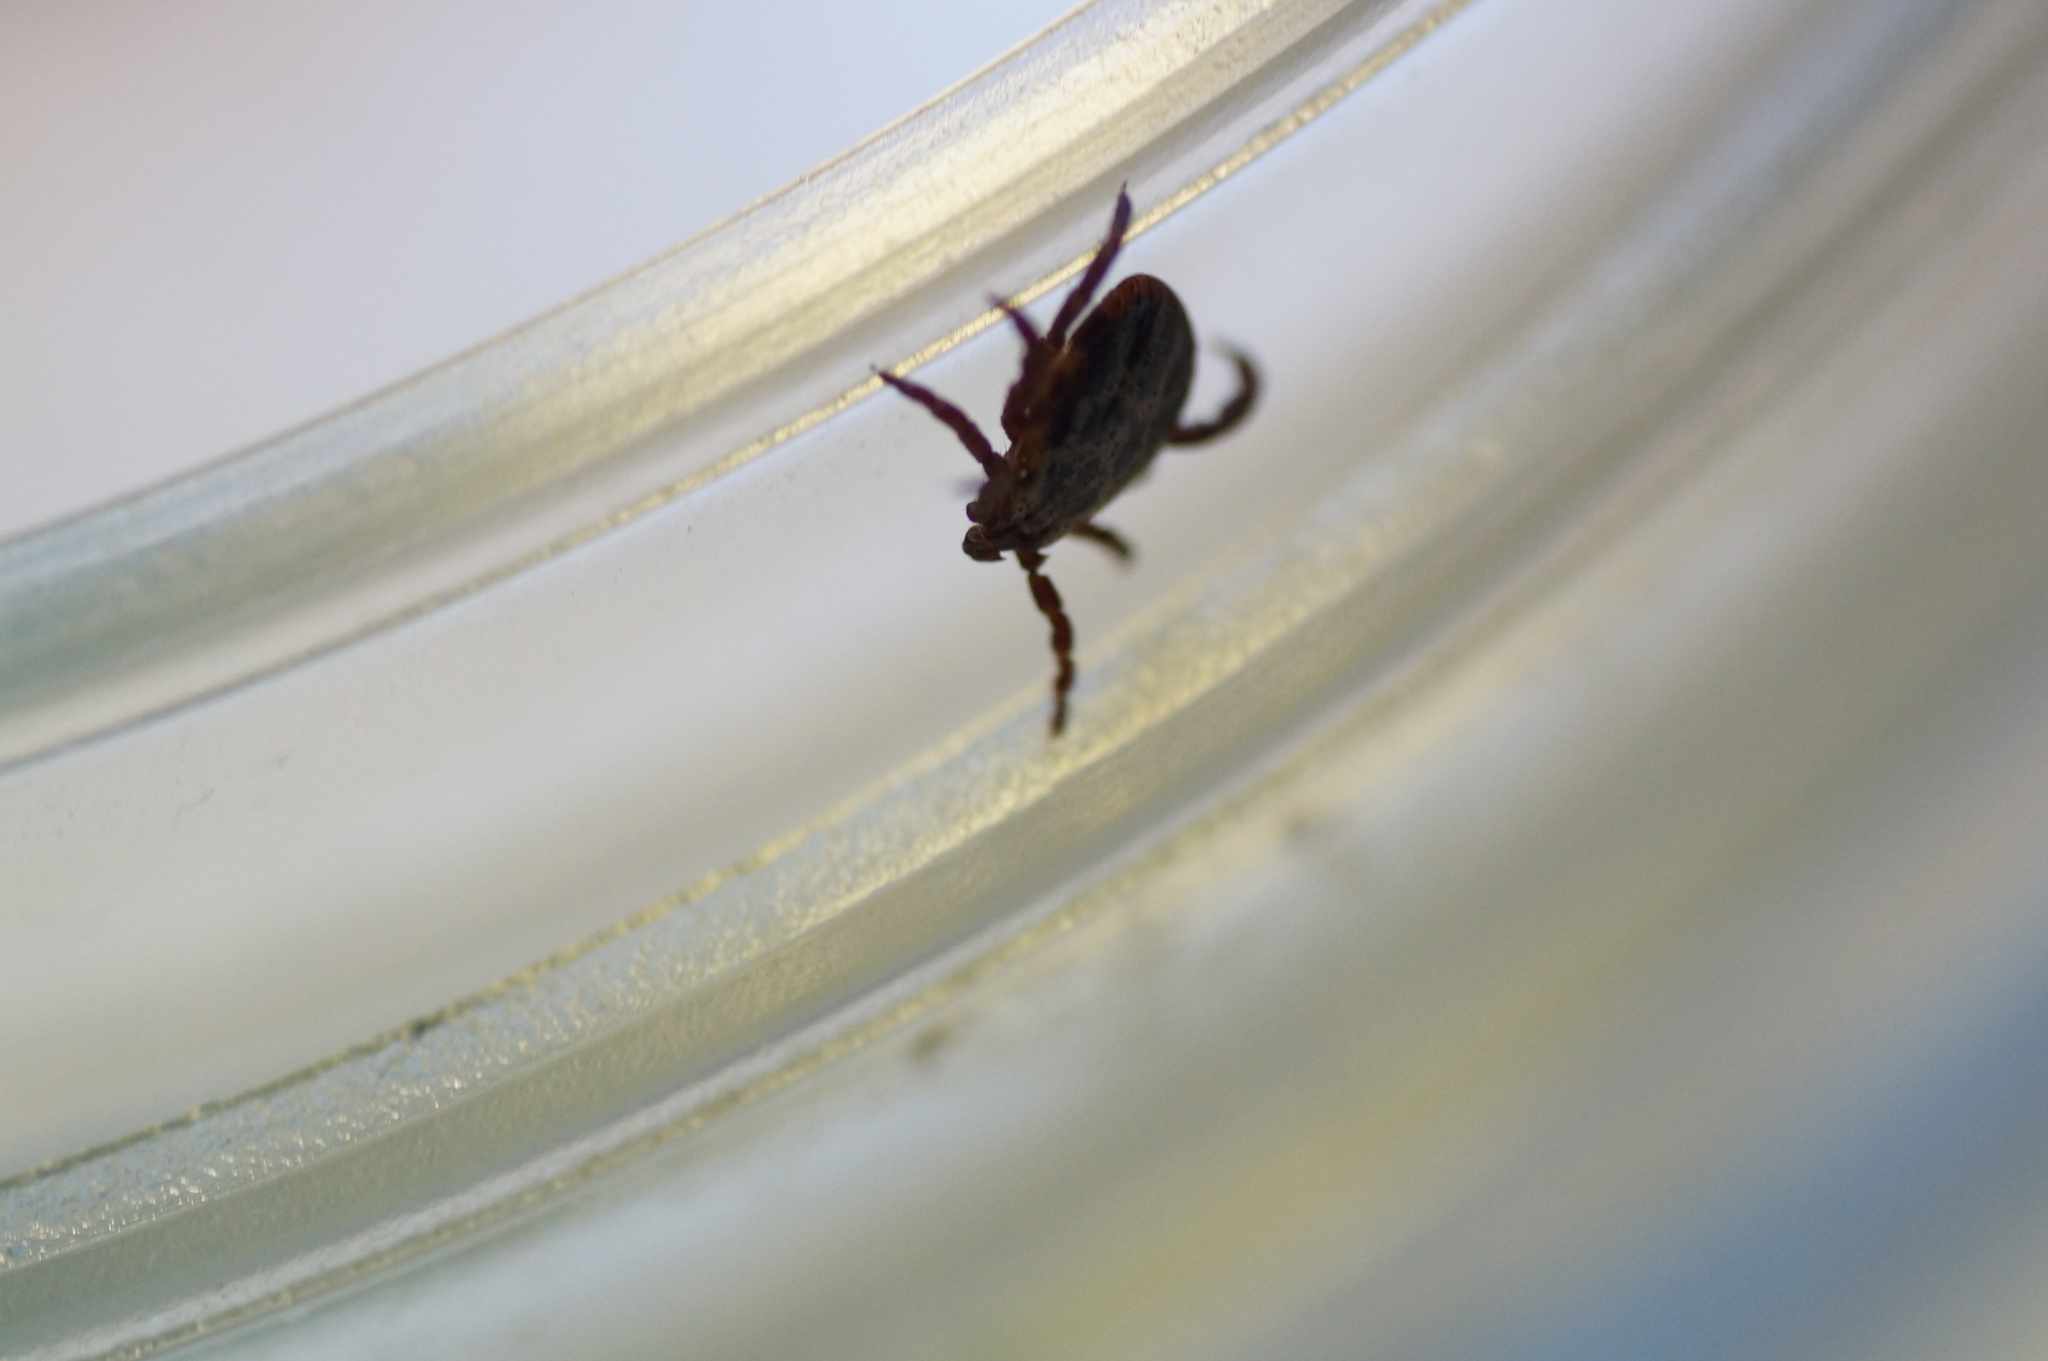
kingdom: Animalia
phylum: Arthropoda
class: Arachnida
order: Ixodida
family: Ixodidae
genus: Dermacentor
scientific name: Dermacentor reticulatus
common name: Ornate cow tick
